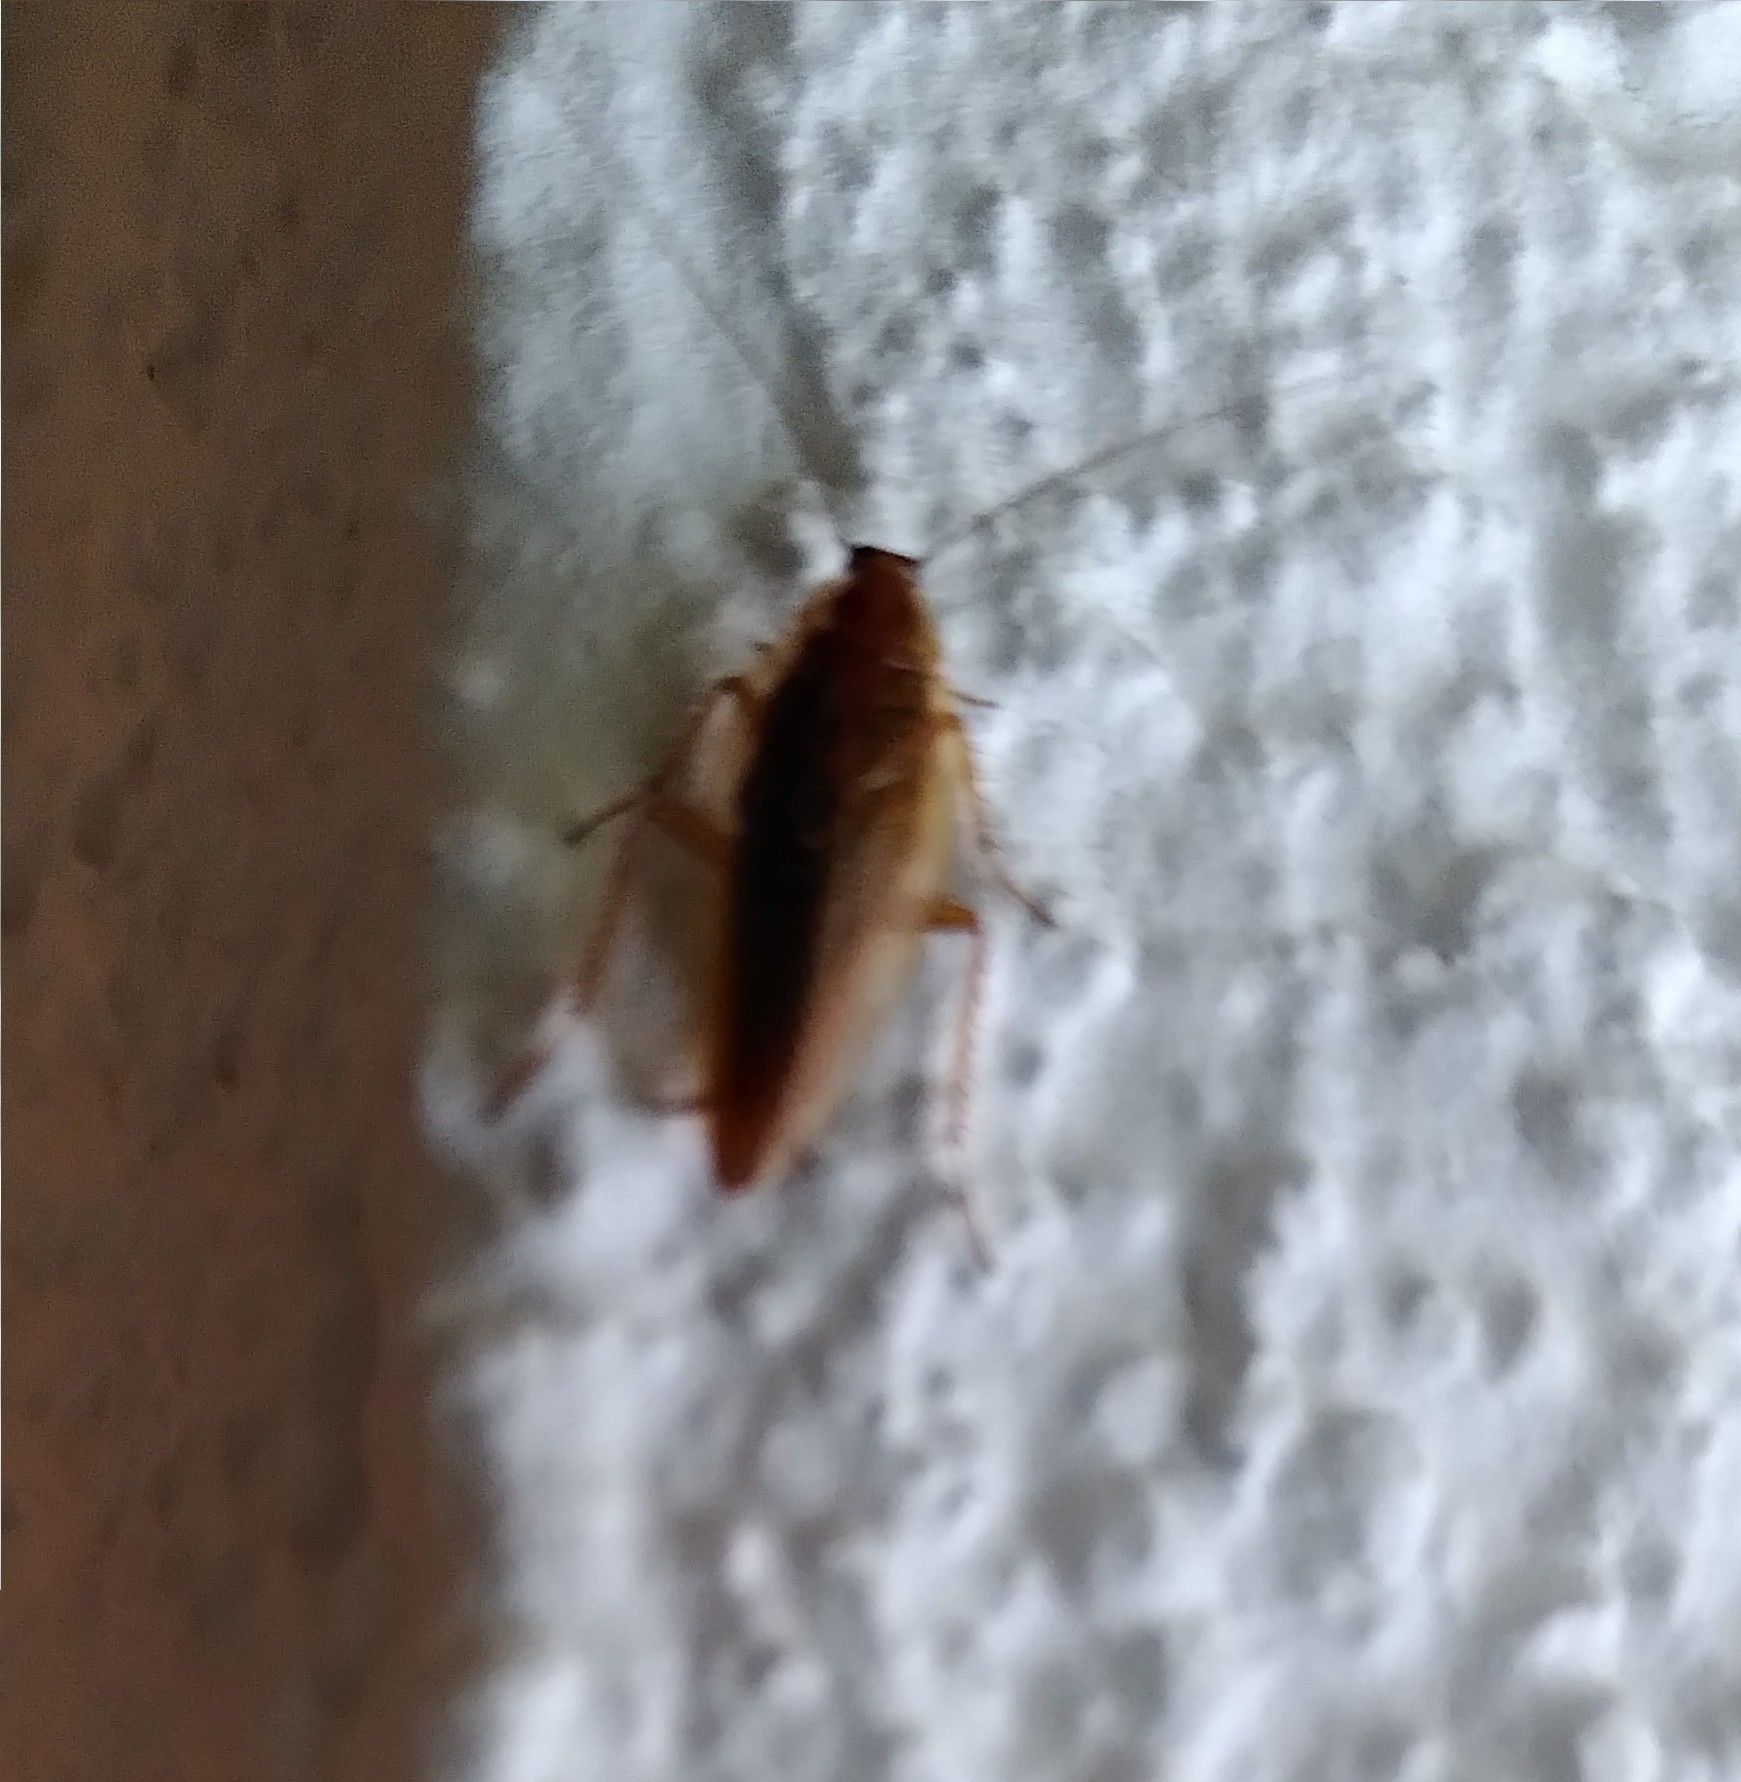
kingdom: Animalia
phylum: Arthropoda
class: Insecta
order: Blattodea
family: Ectobiidae
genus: Ectobius
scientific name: Ectobius vittiventris
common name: Garden cockroach
